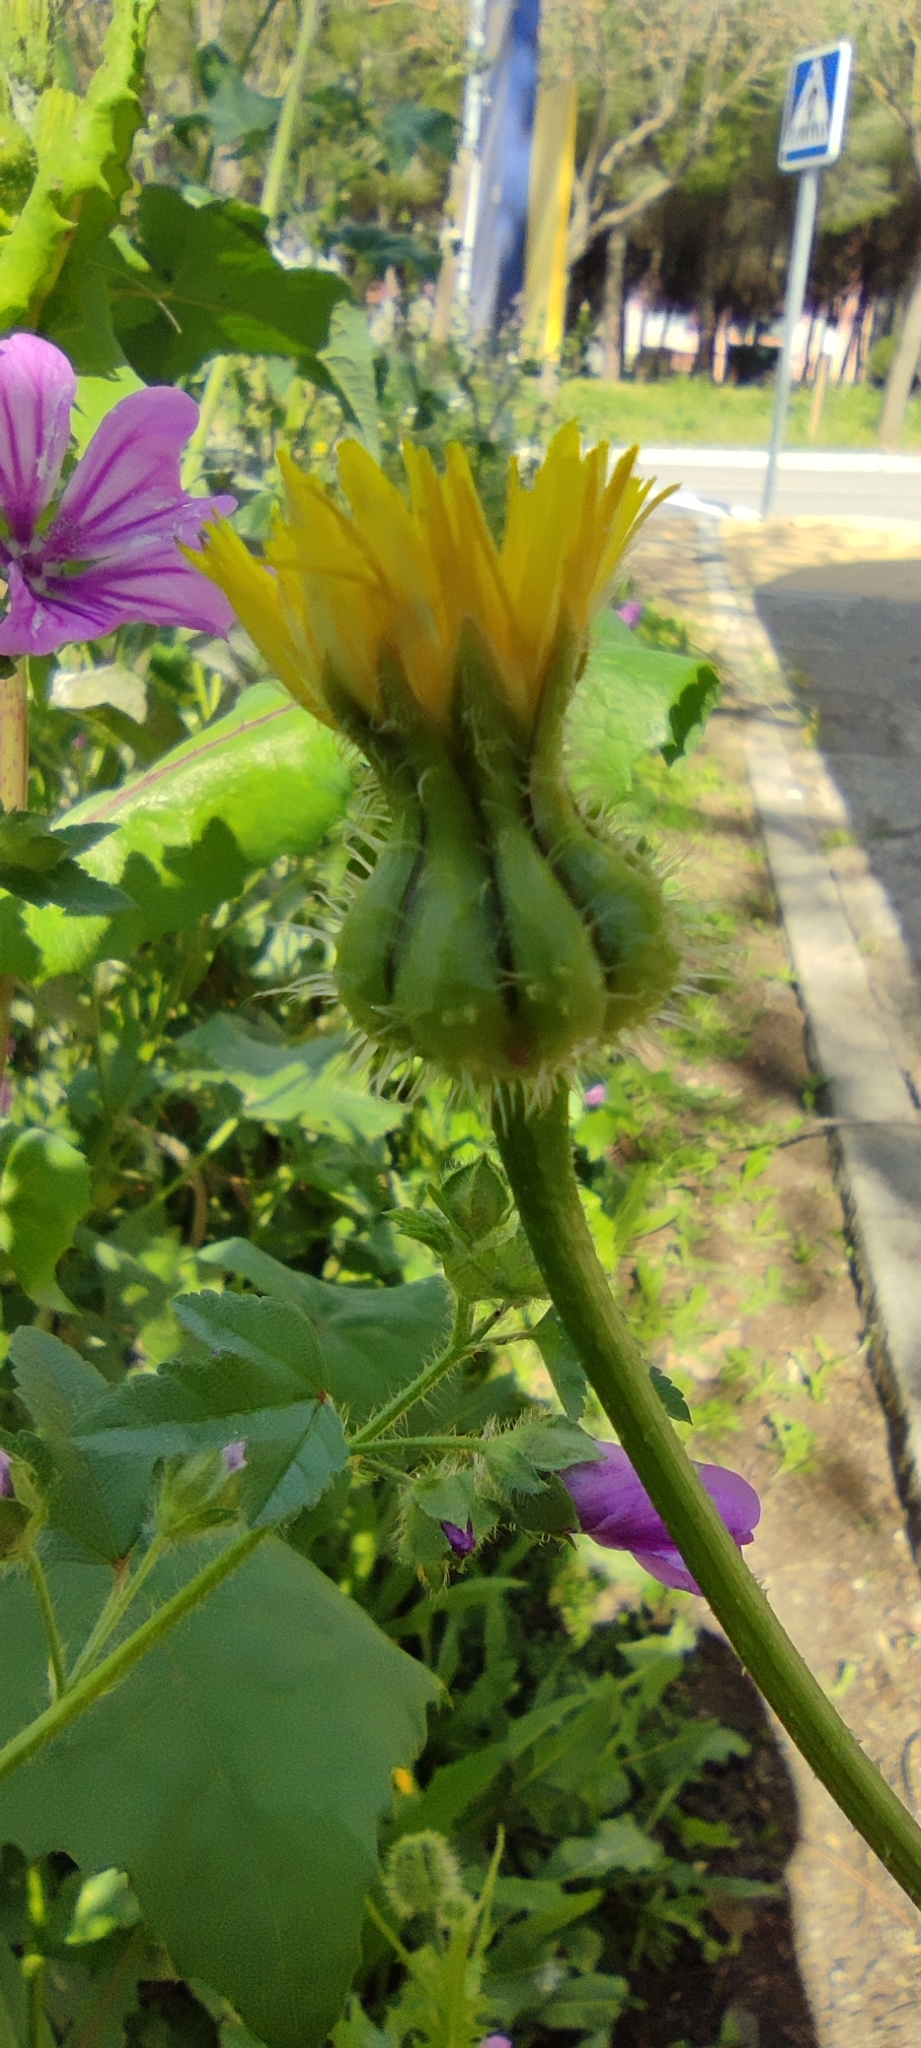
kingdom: Plantae
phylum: Tracheophyta
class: Magnoliopsida
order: Asterales
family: Asteraceae
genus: Urospermum
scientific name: Urospermum picroides
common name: False hawkbit
